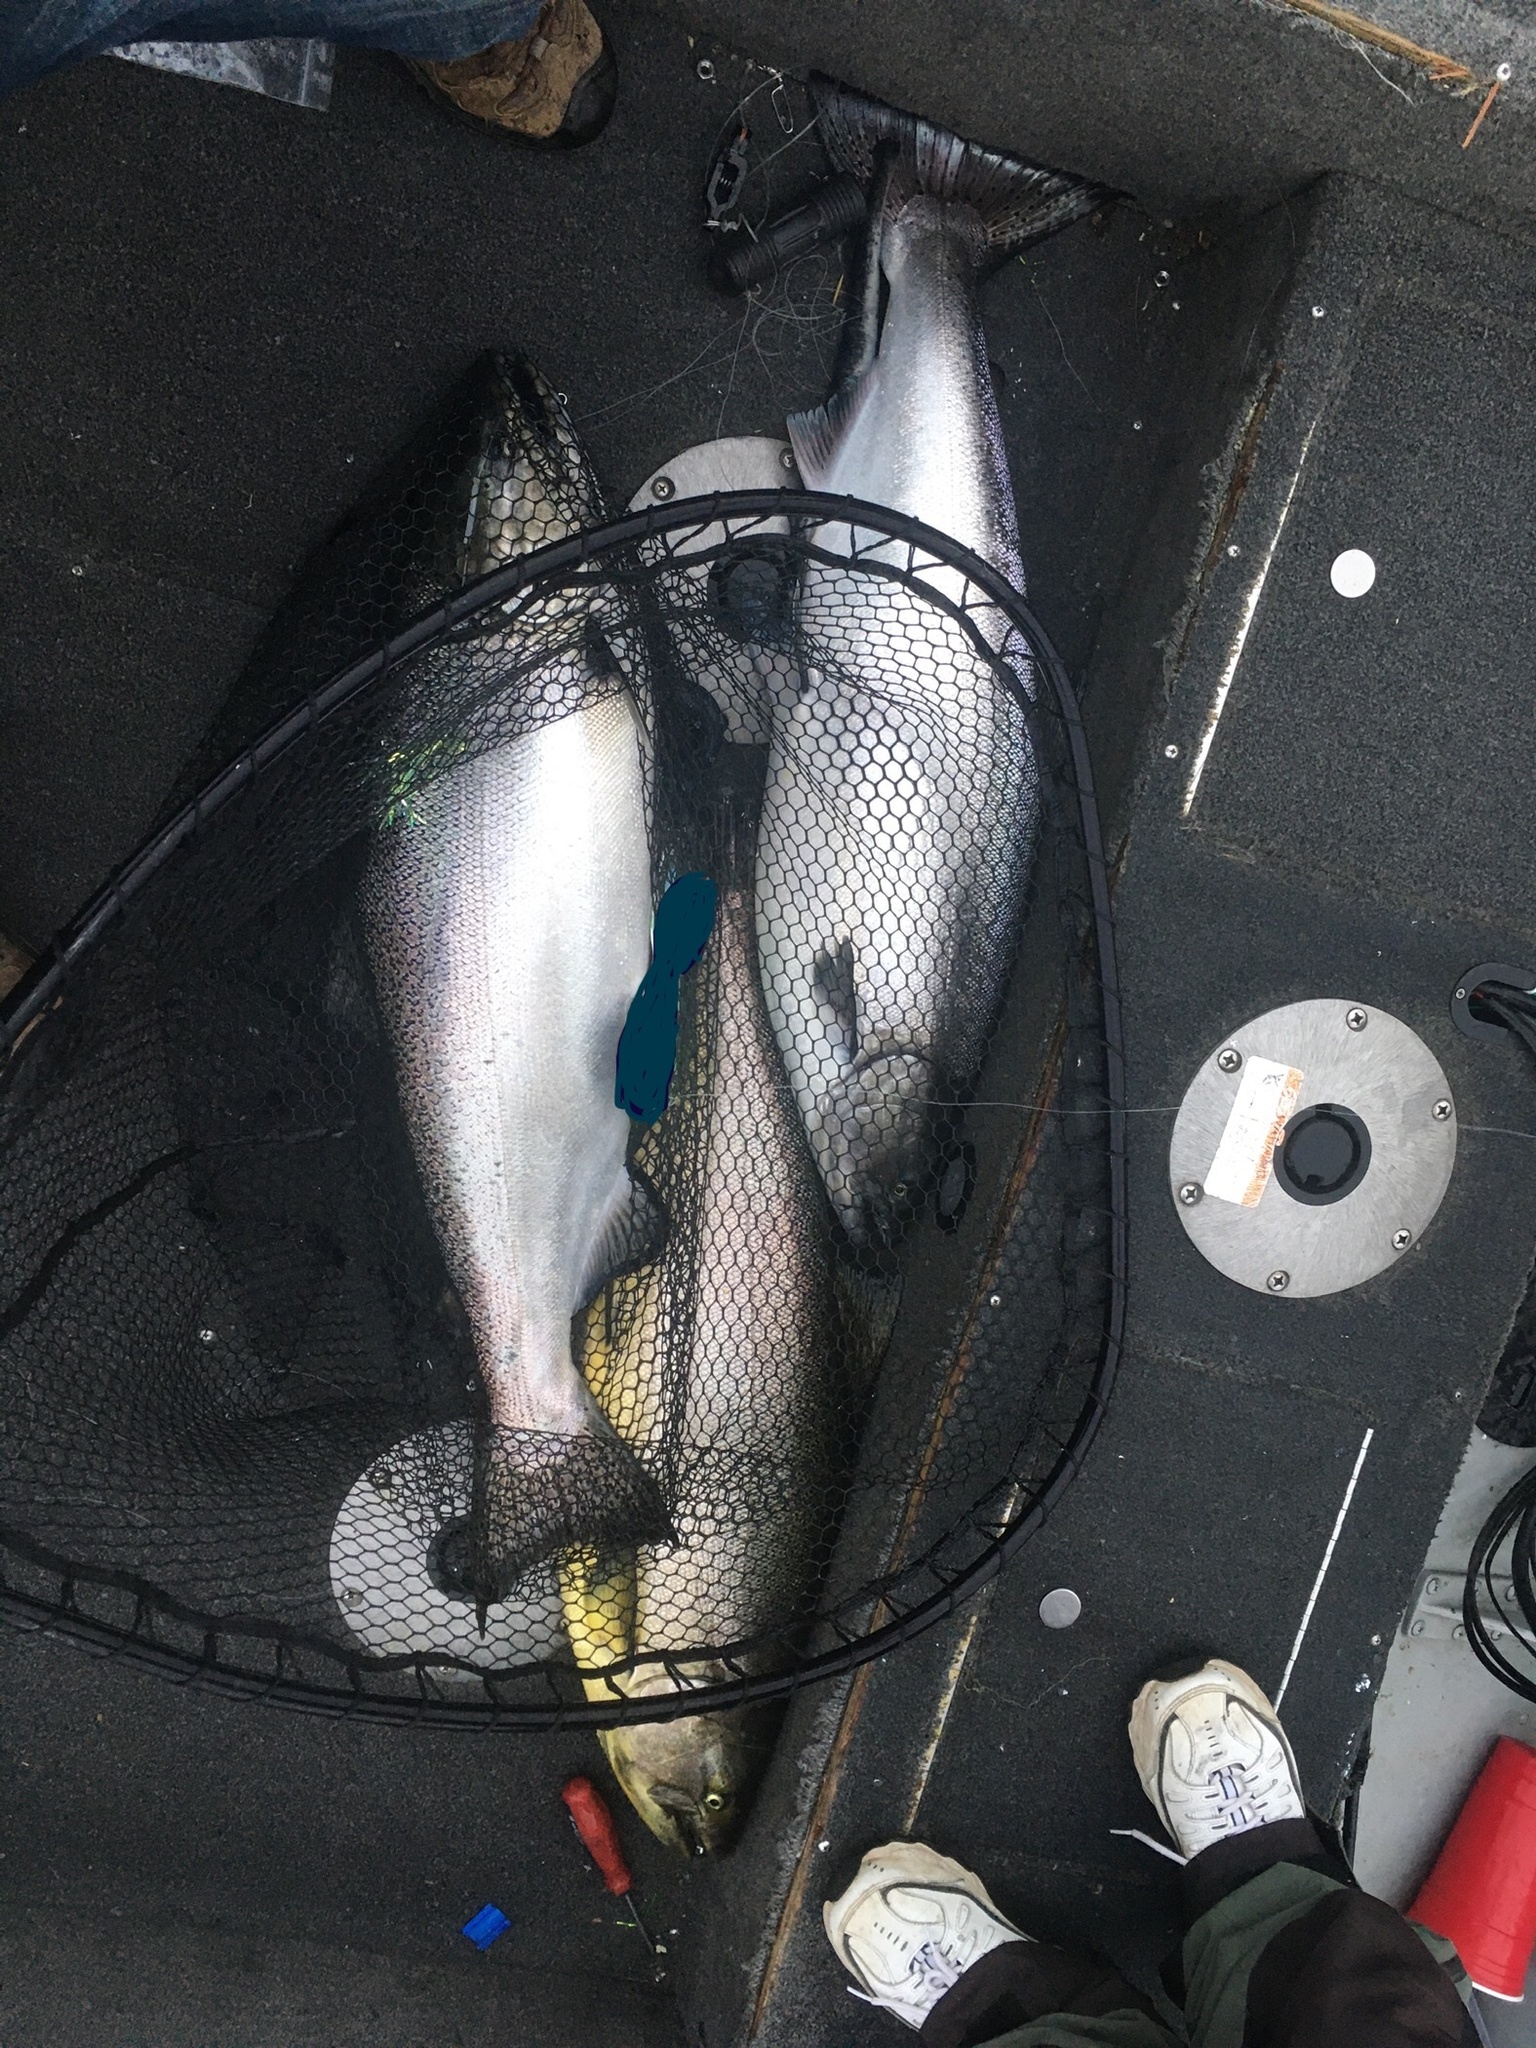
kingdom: Animalia
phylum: Chordata
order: Salmoniformes
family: Salmonidae
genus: Oncorhynchus
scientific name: Oncorhynchus tshawytscha
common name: Chinook salmon
